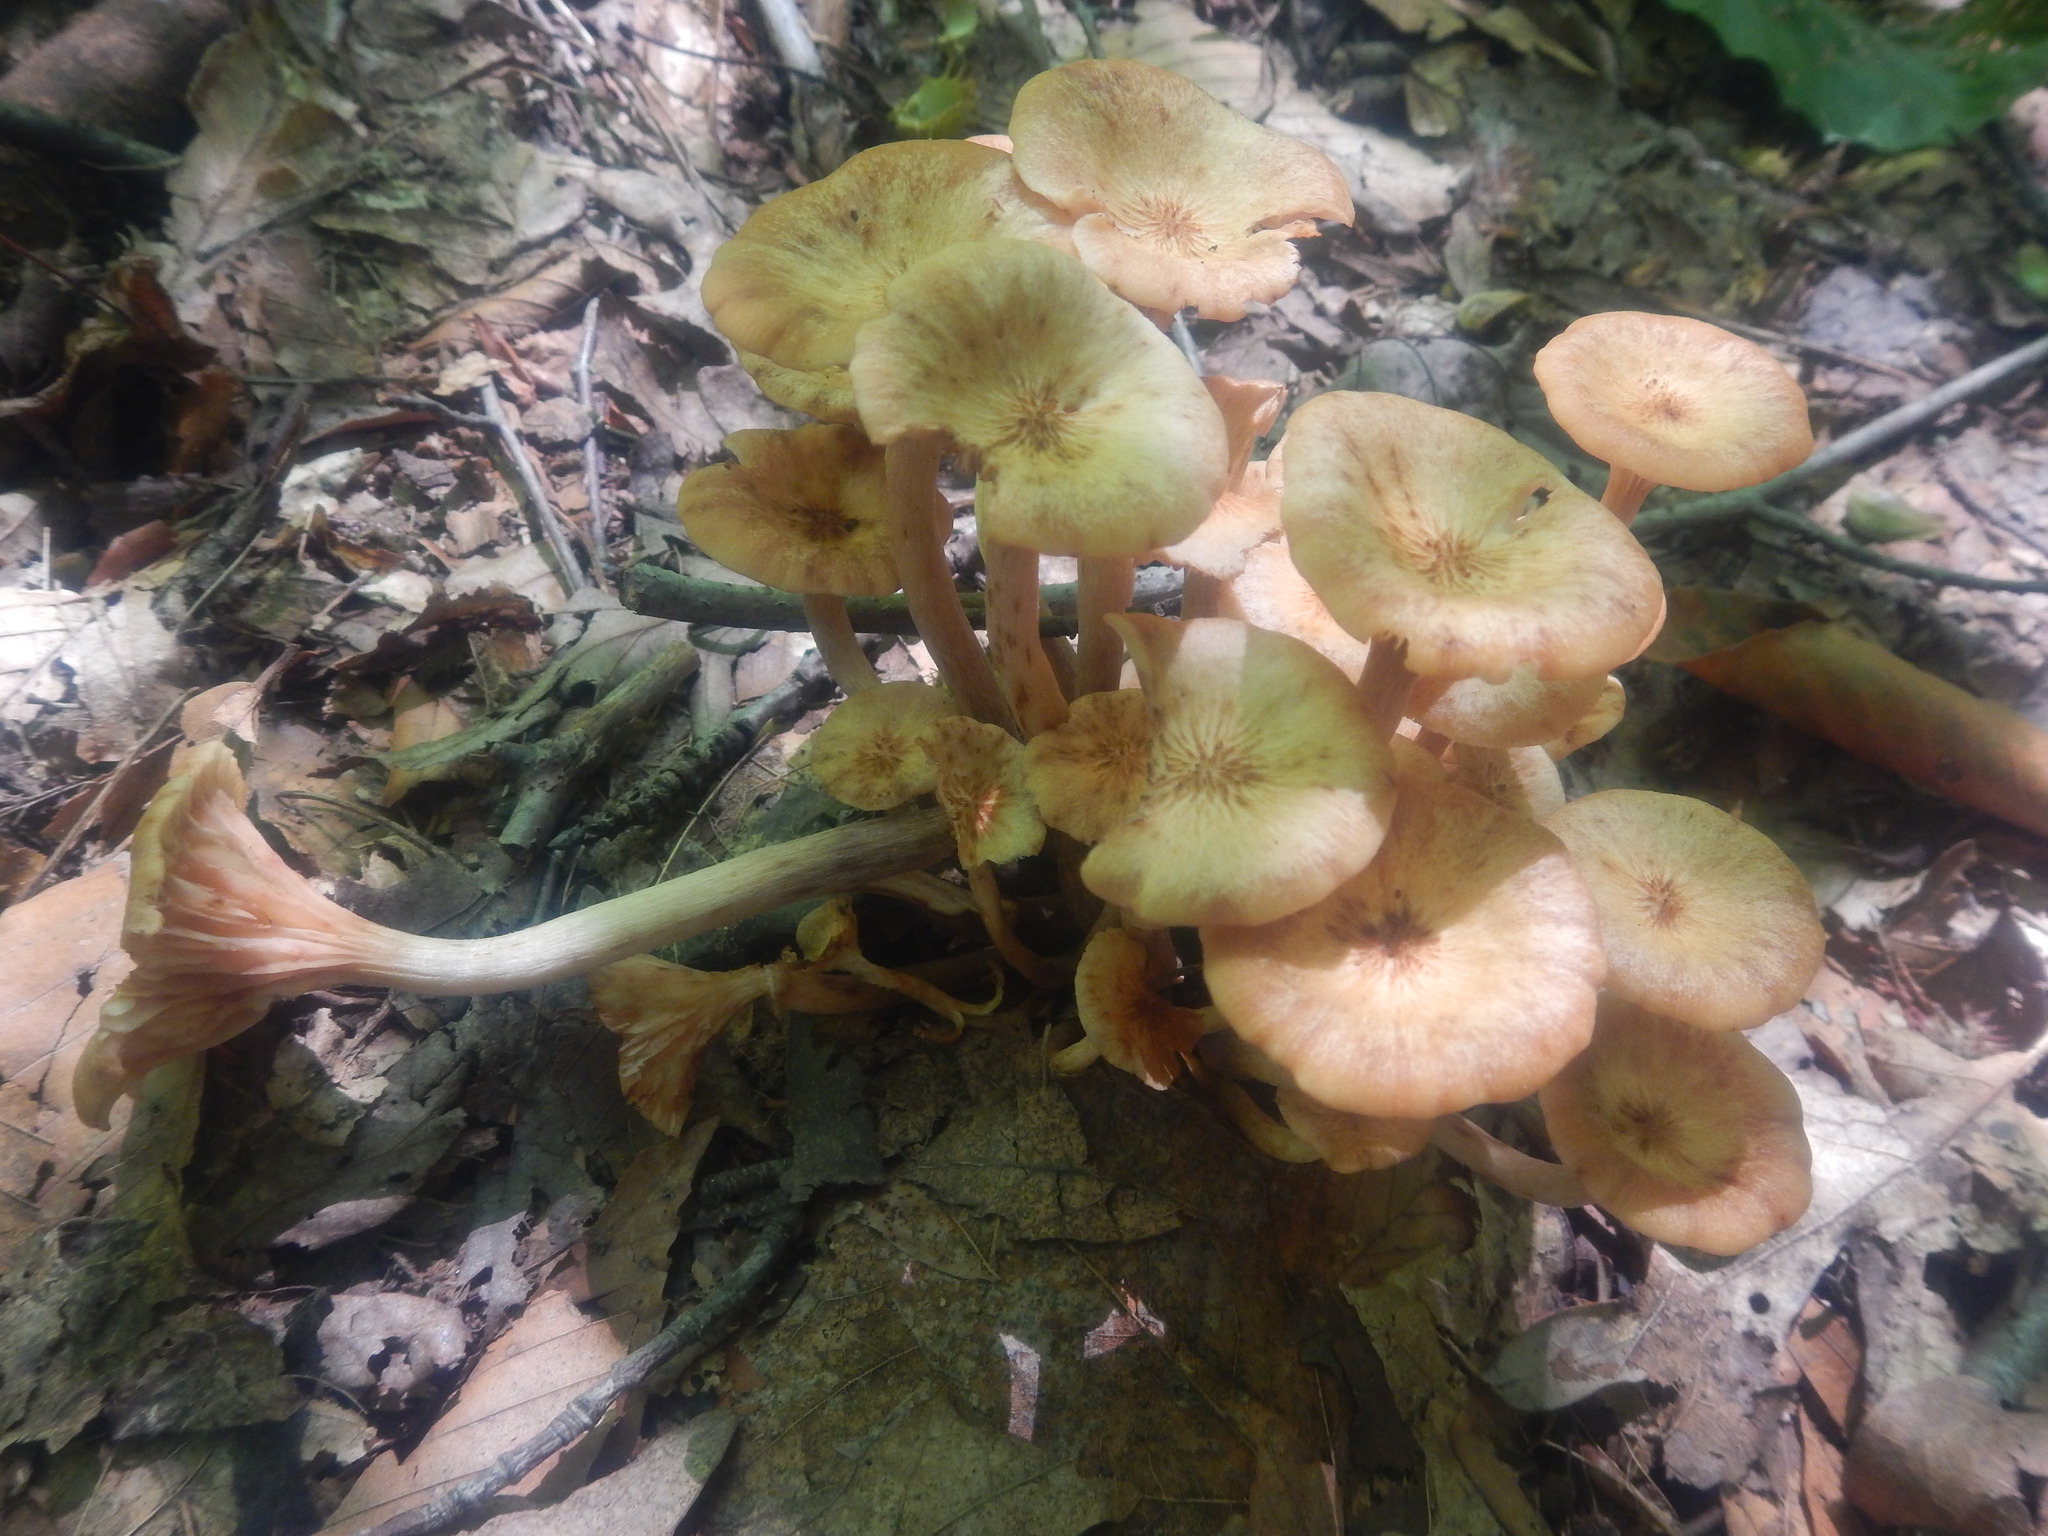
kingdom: Fungi
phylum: Basidiomycota
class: Agaricomycetes
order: Agaricales
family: Physalacriaceae
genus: Desarmillaria
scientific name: Desarmillaria caespitosa
